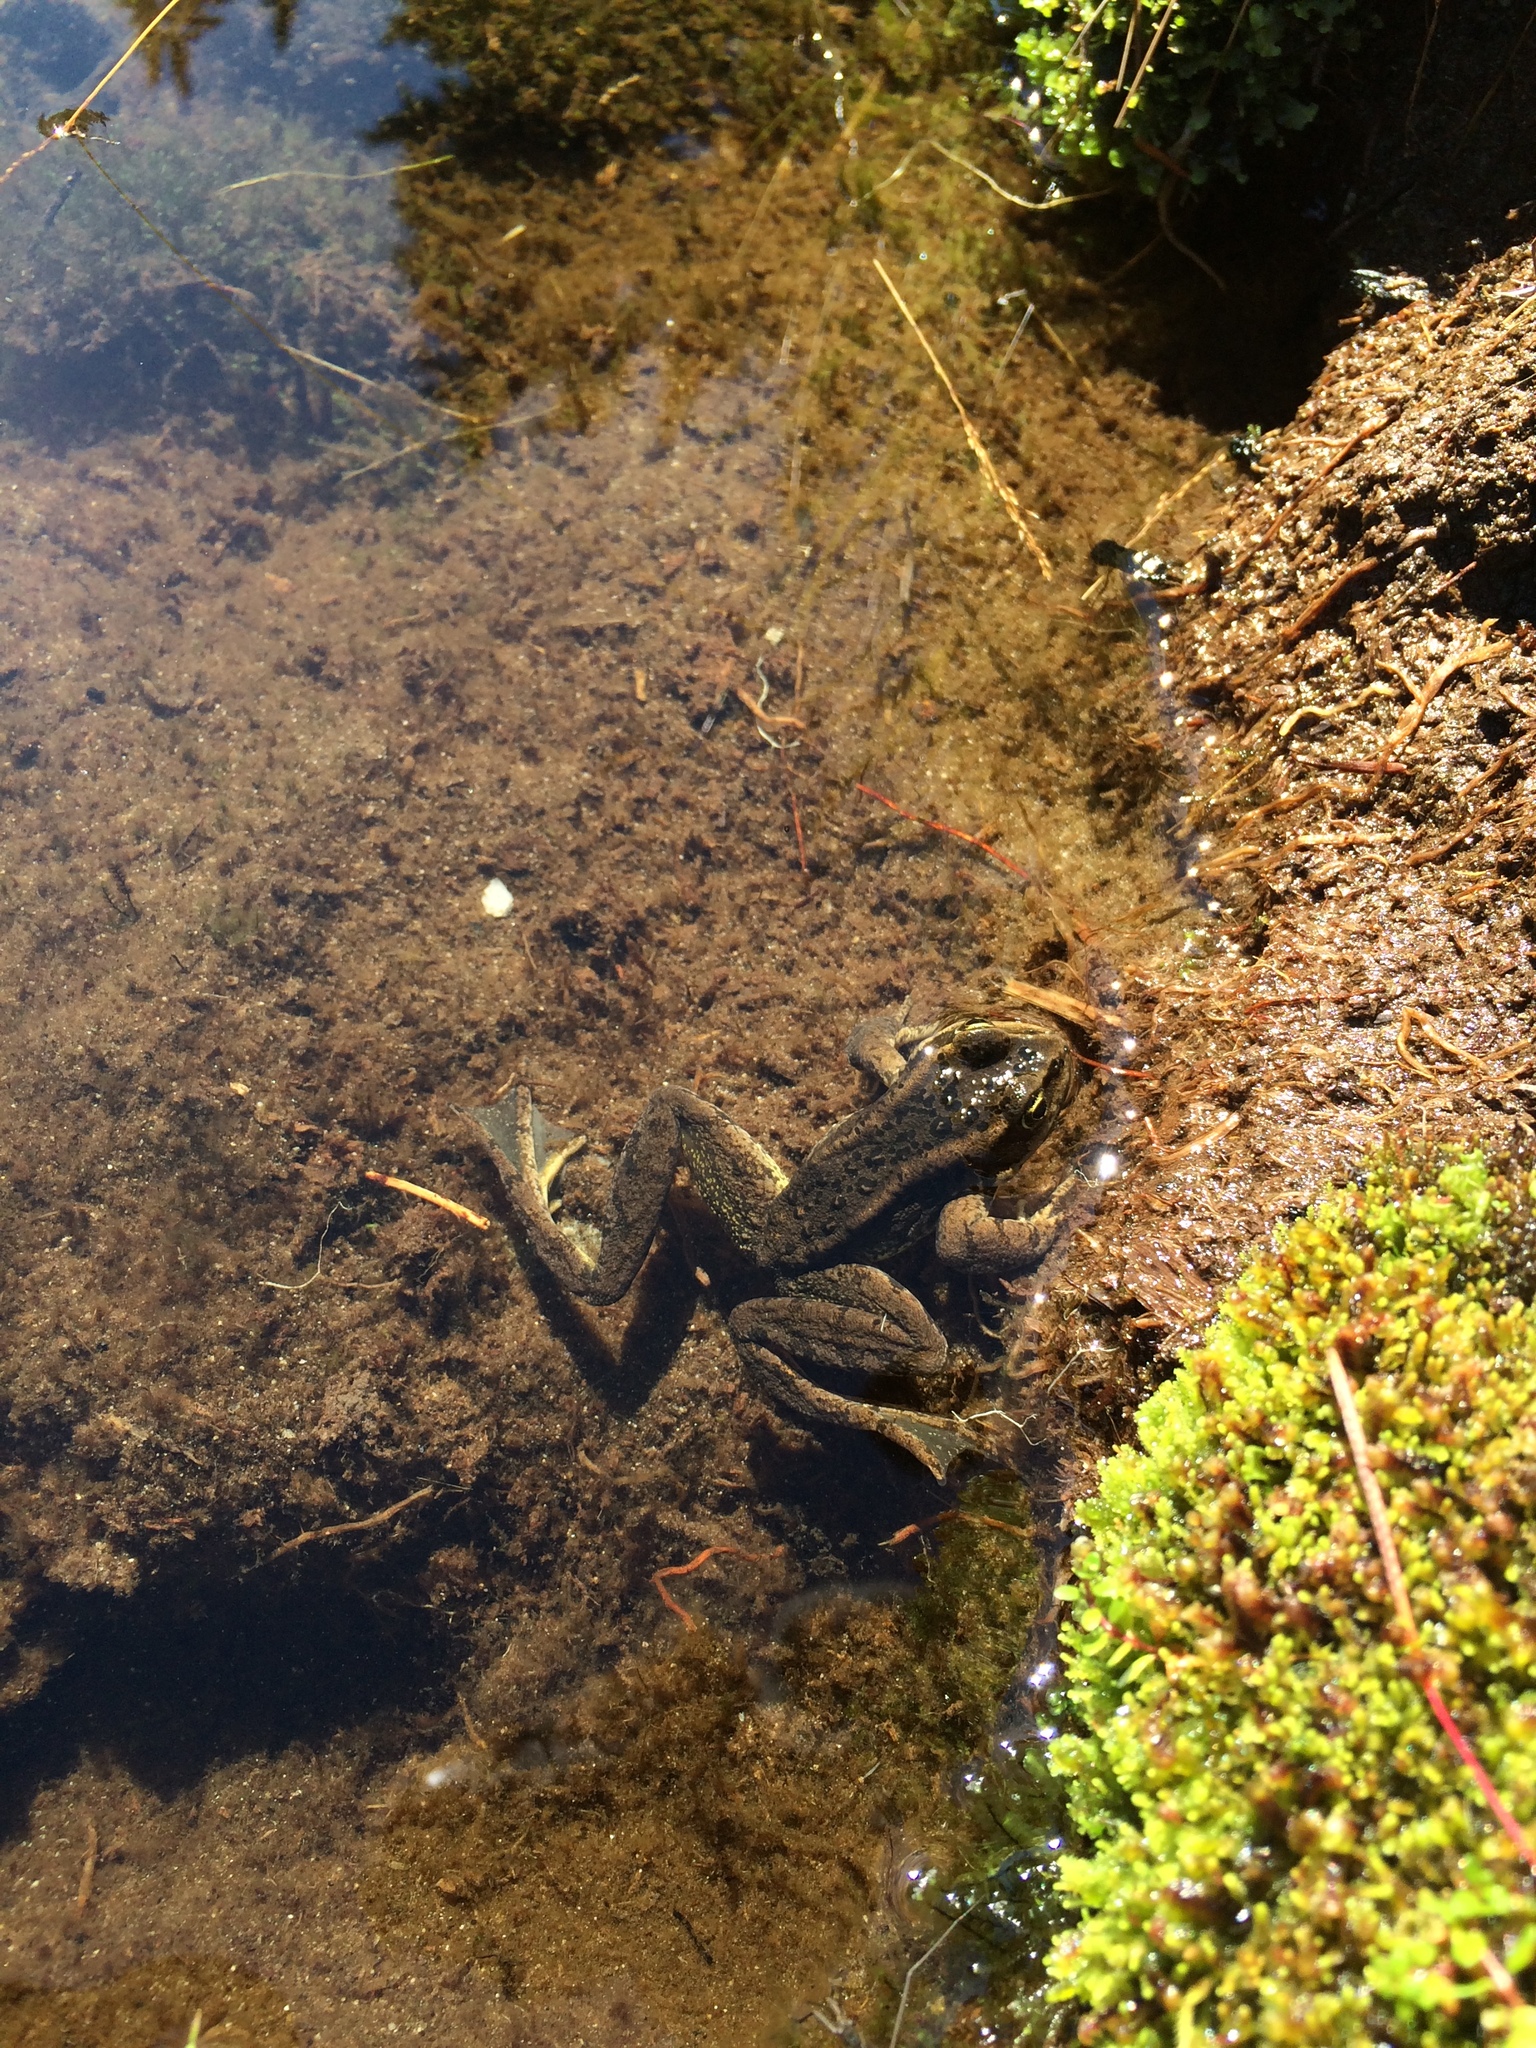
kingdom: Animalia
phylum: Chordata
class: Amphibia
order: Anura
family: Ranidae
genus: Rana
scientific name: Rana cascadae
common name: Cascades frog
